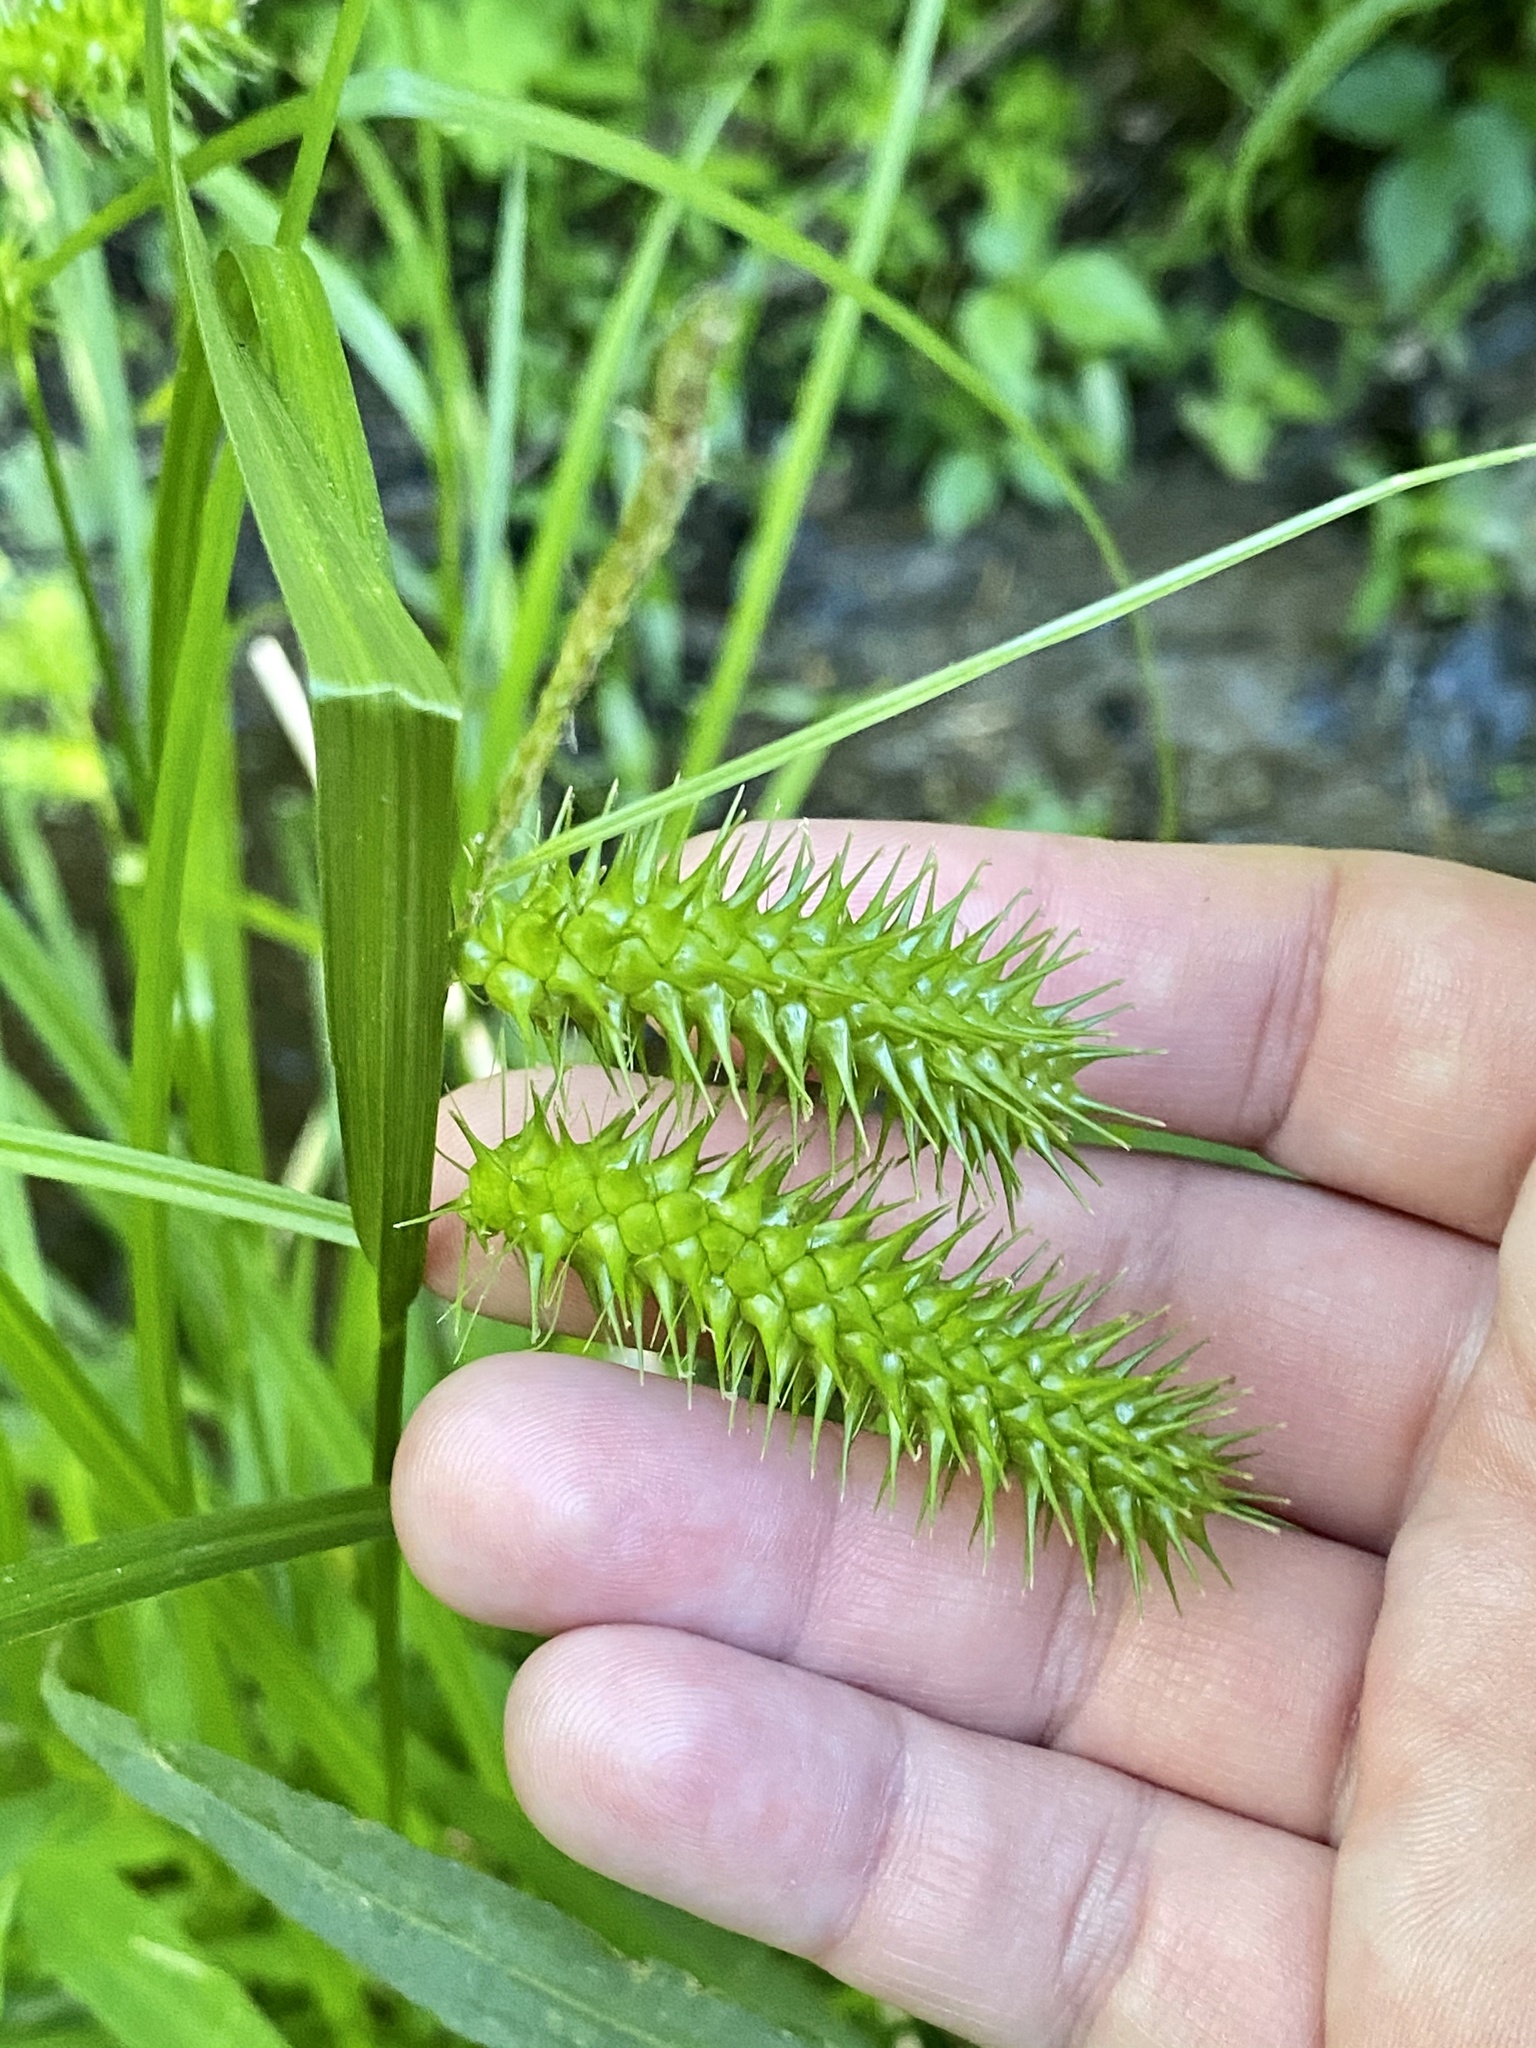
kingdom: Plantae
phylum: Tracheophyta
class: Liliopsida
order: Poales
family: Cyperaceae
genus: Carex
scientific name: Carex lurida
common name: Sallow sedge
